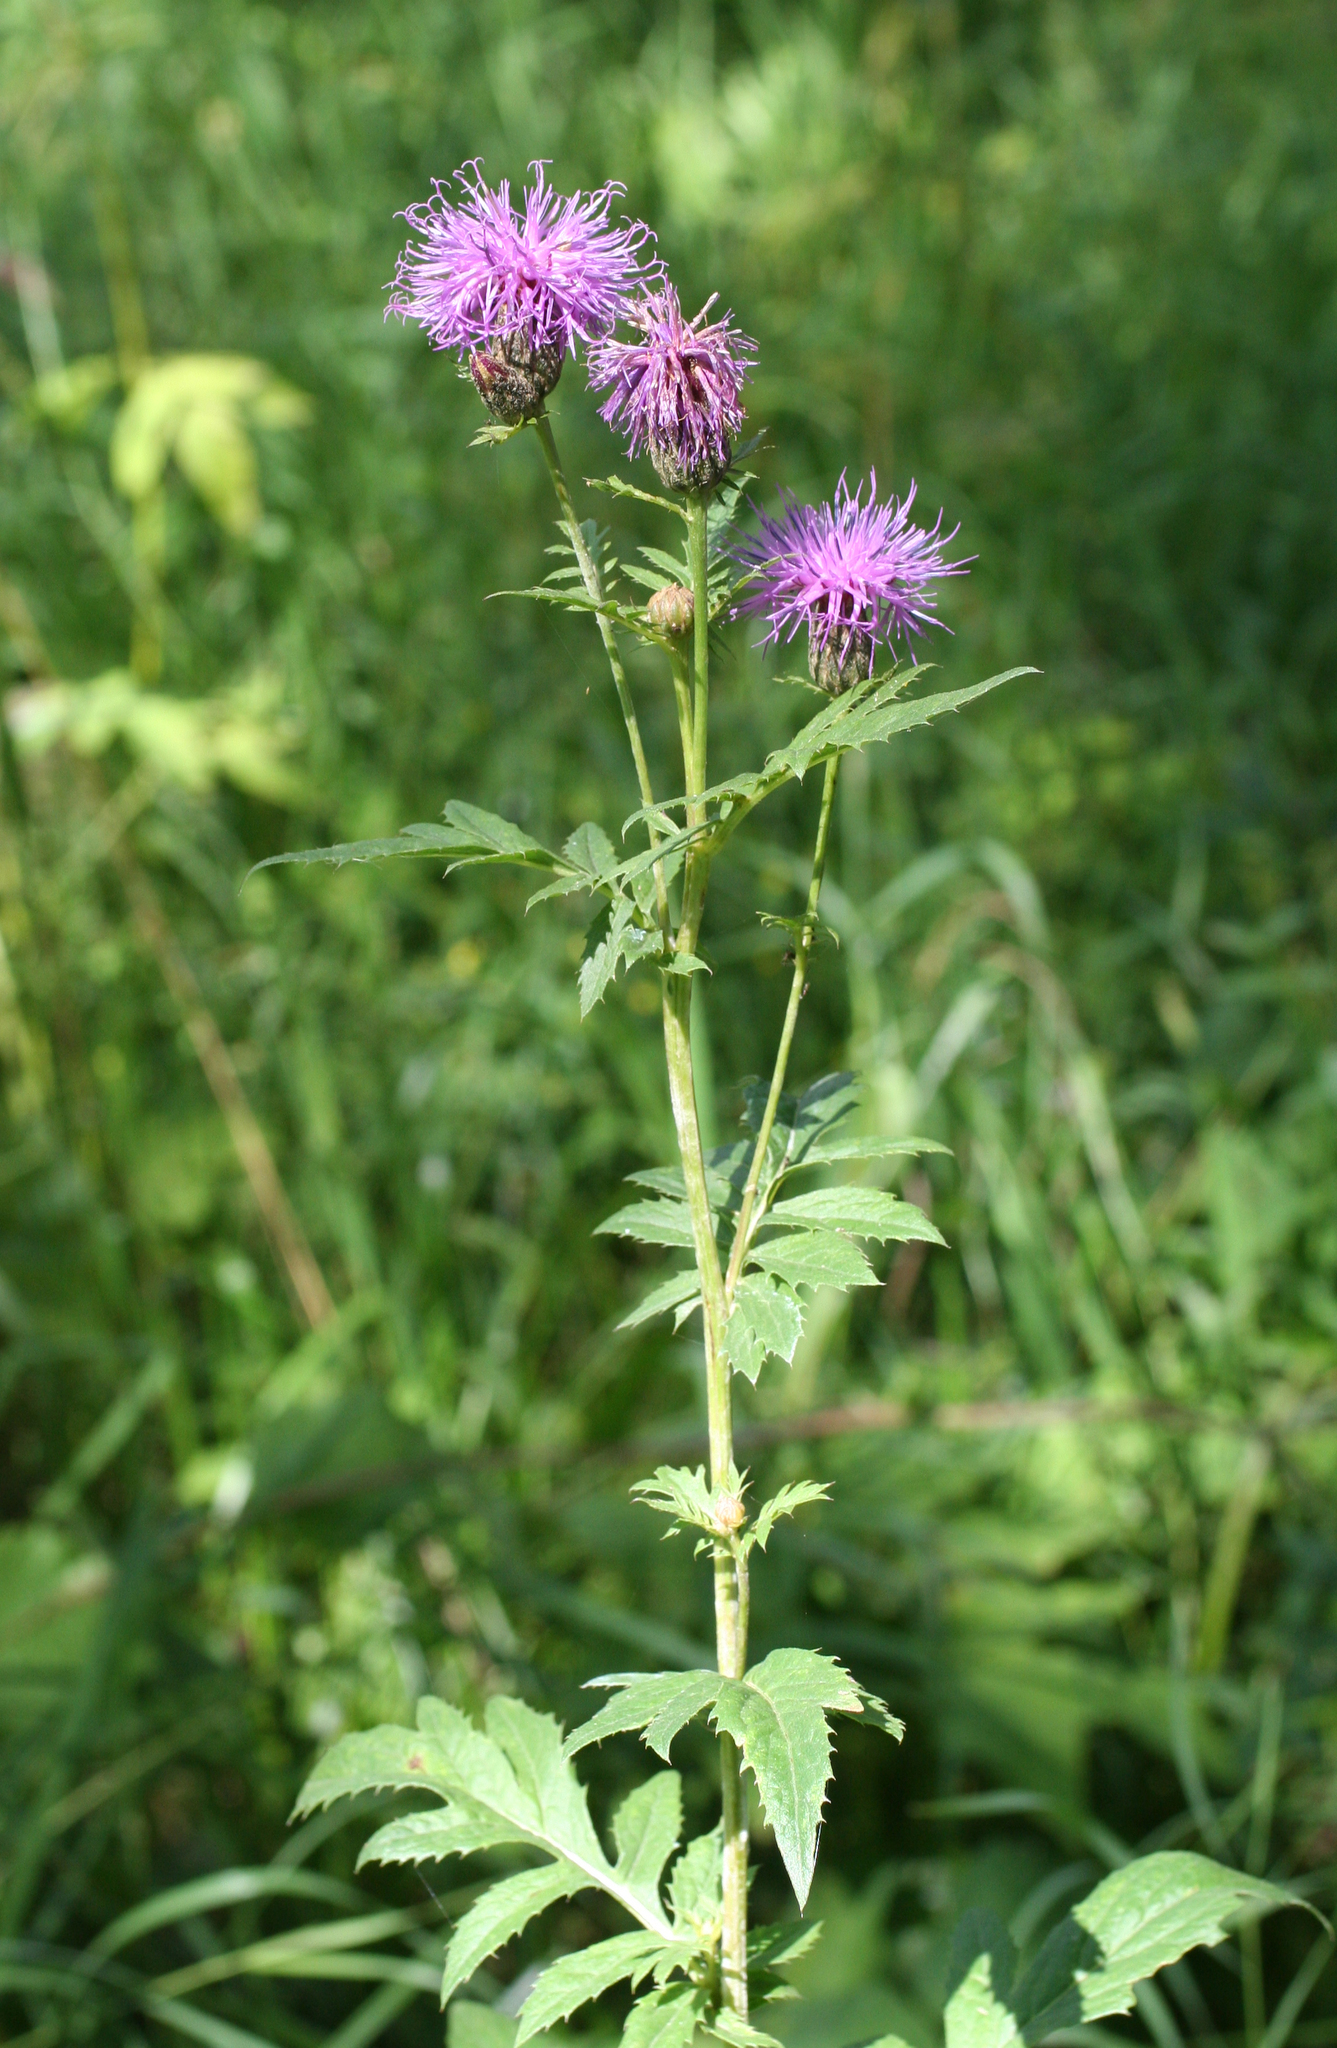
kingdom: Plantae
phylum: Tracheophyta
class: Magnoliopsida
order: Asterales
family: Asteraceae
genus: Serratula
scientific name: Serratula coronata
